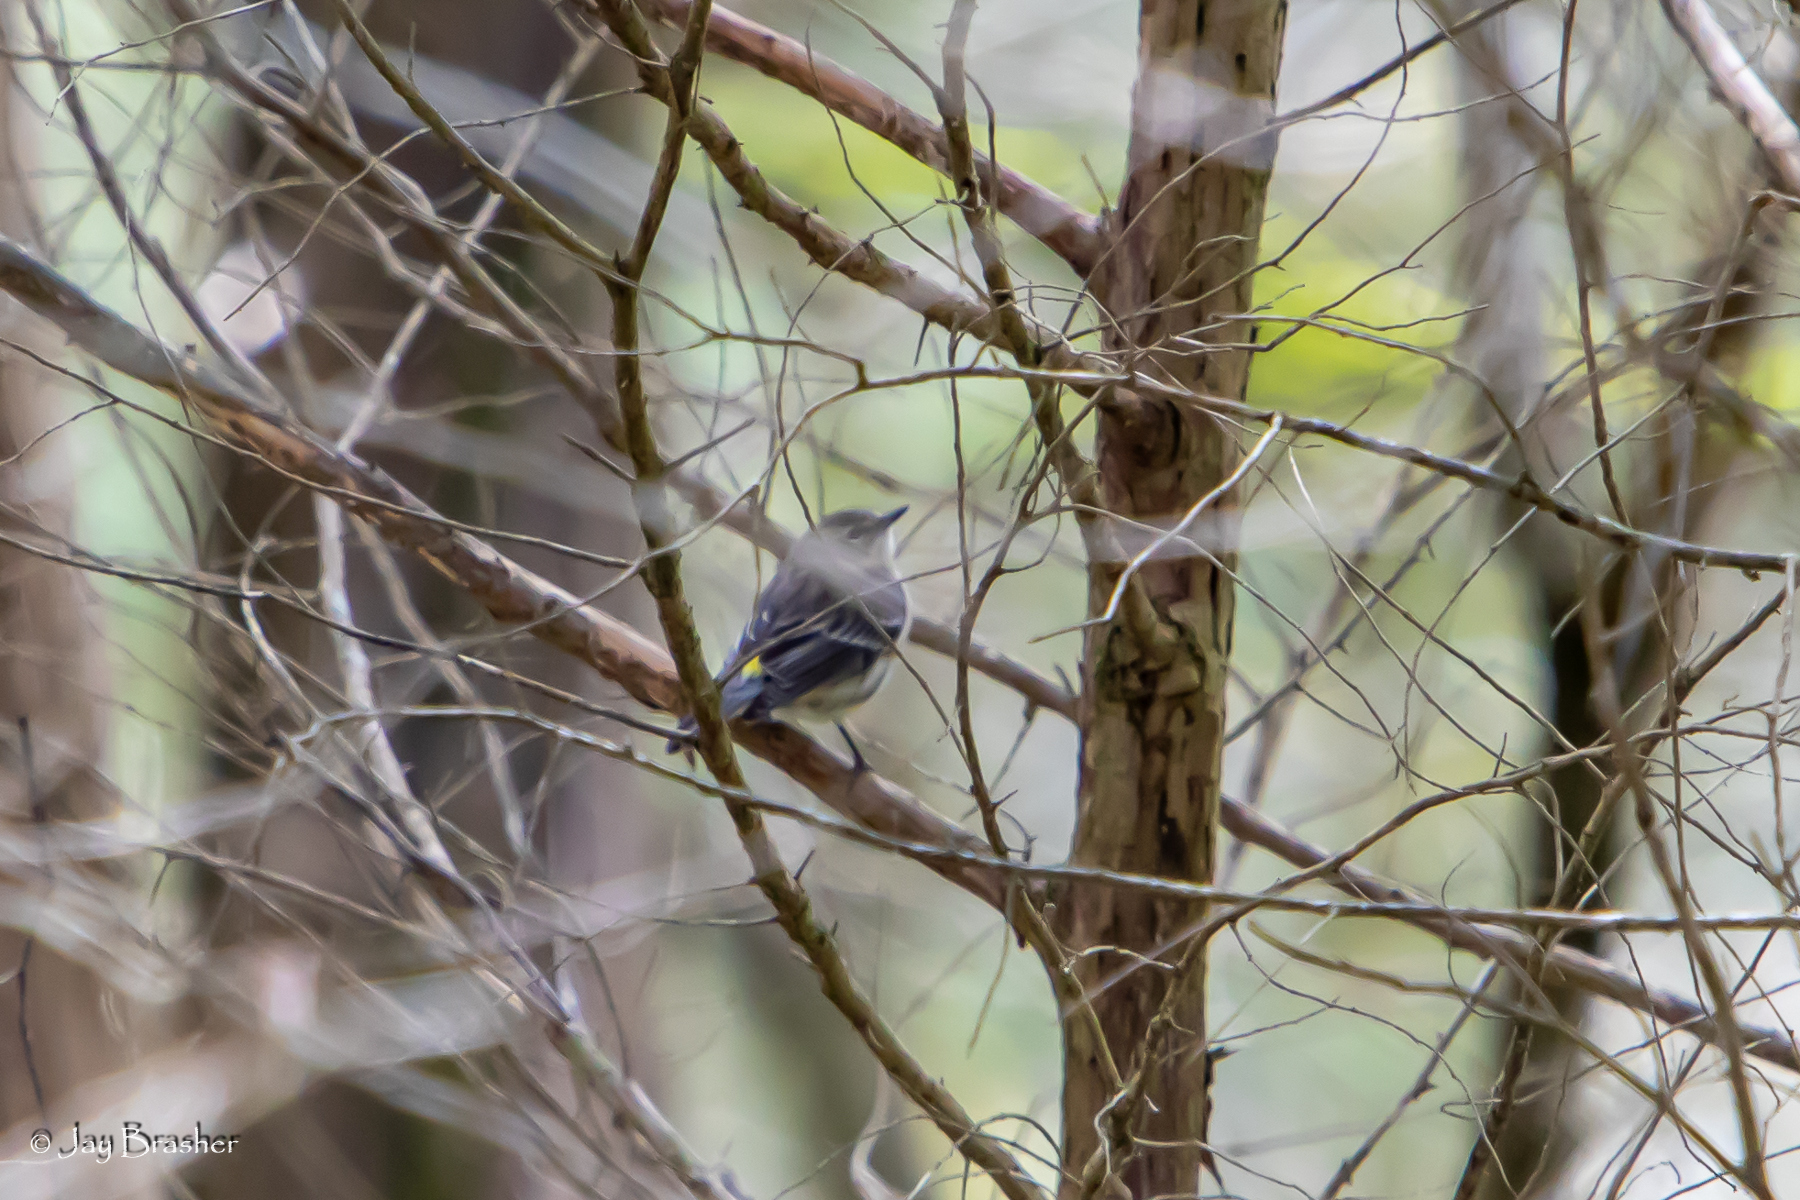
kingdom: Animalia
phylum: Chordata
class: Aves
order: Passeriformes
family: Parulidae
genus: Setophaga
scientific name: Setophaga coronata
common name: Myrtle warbler
